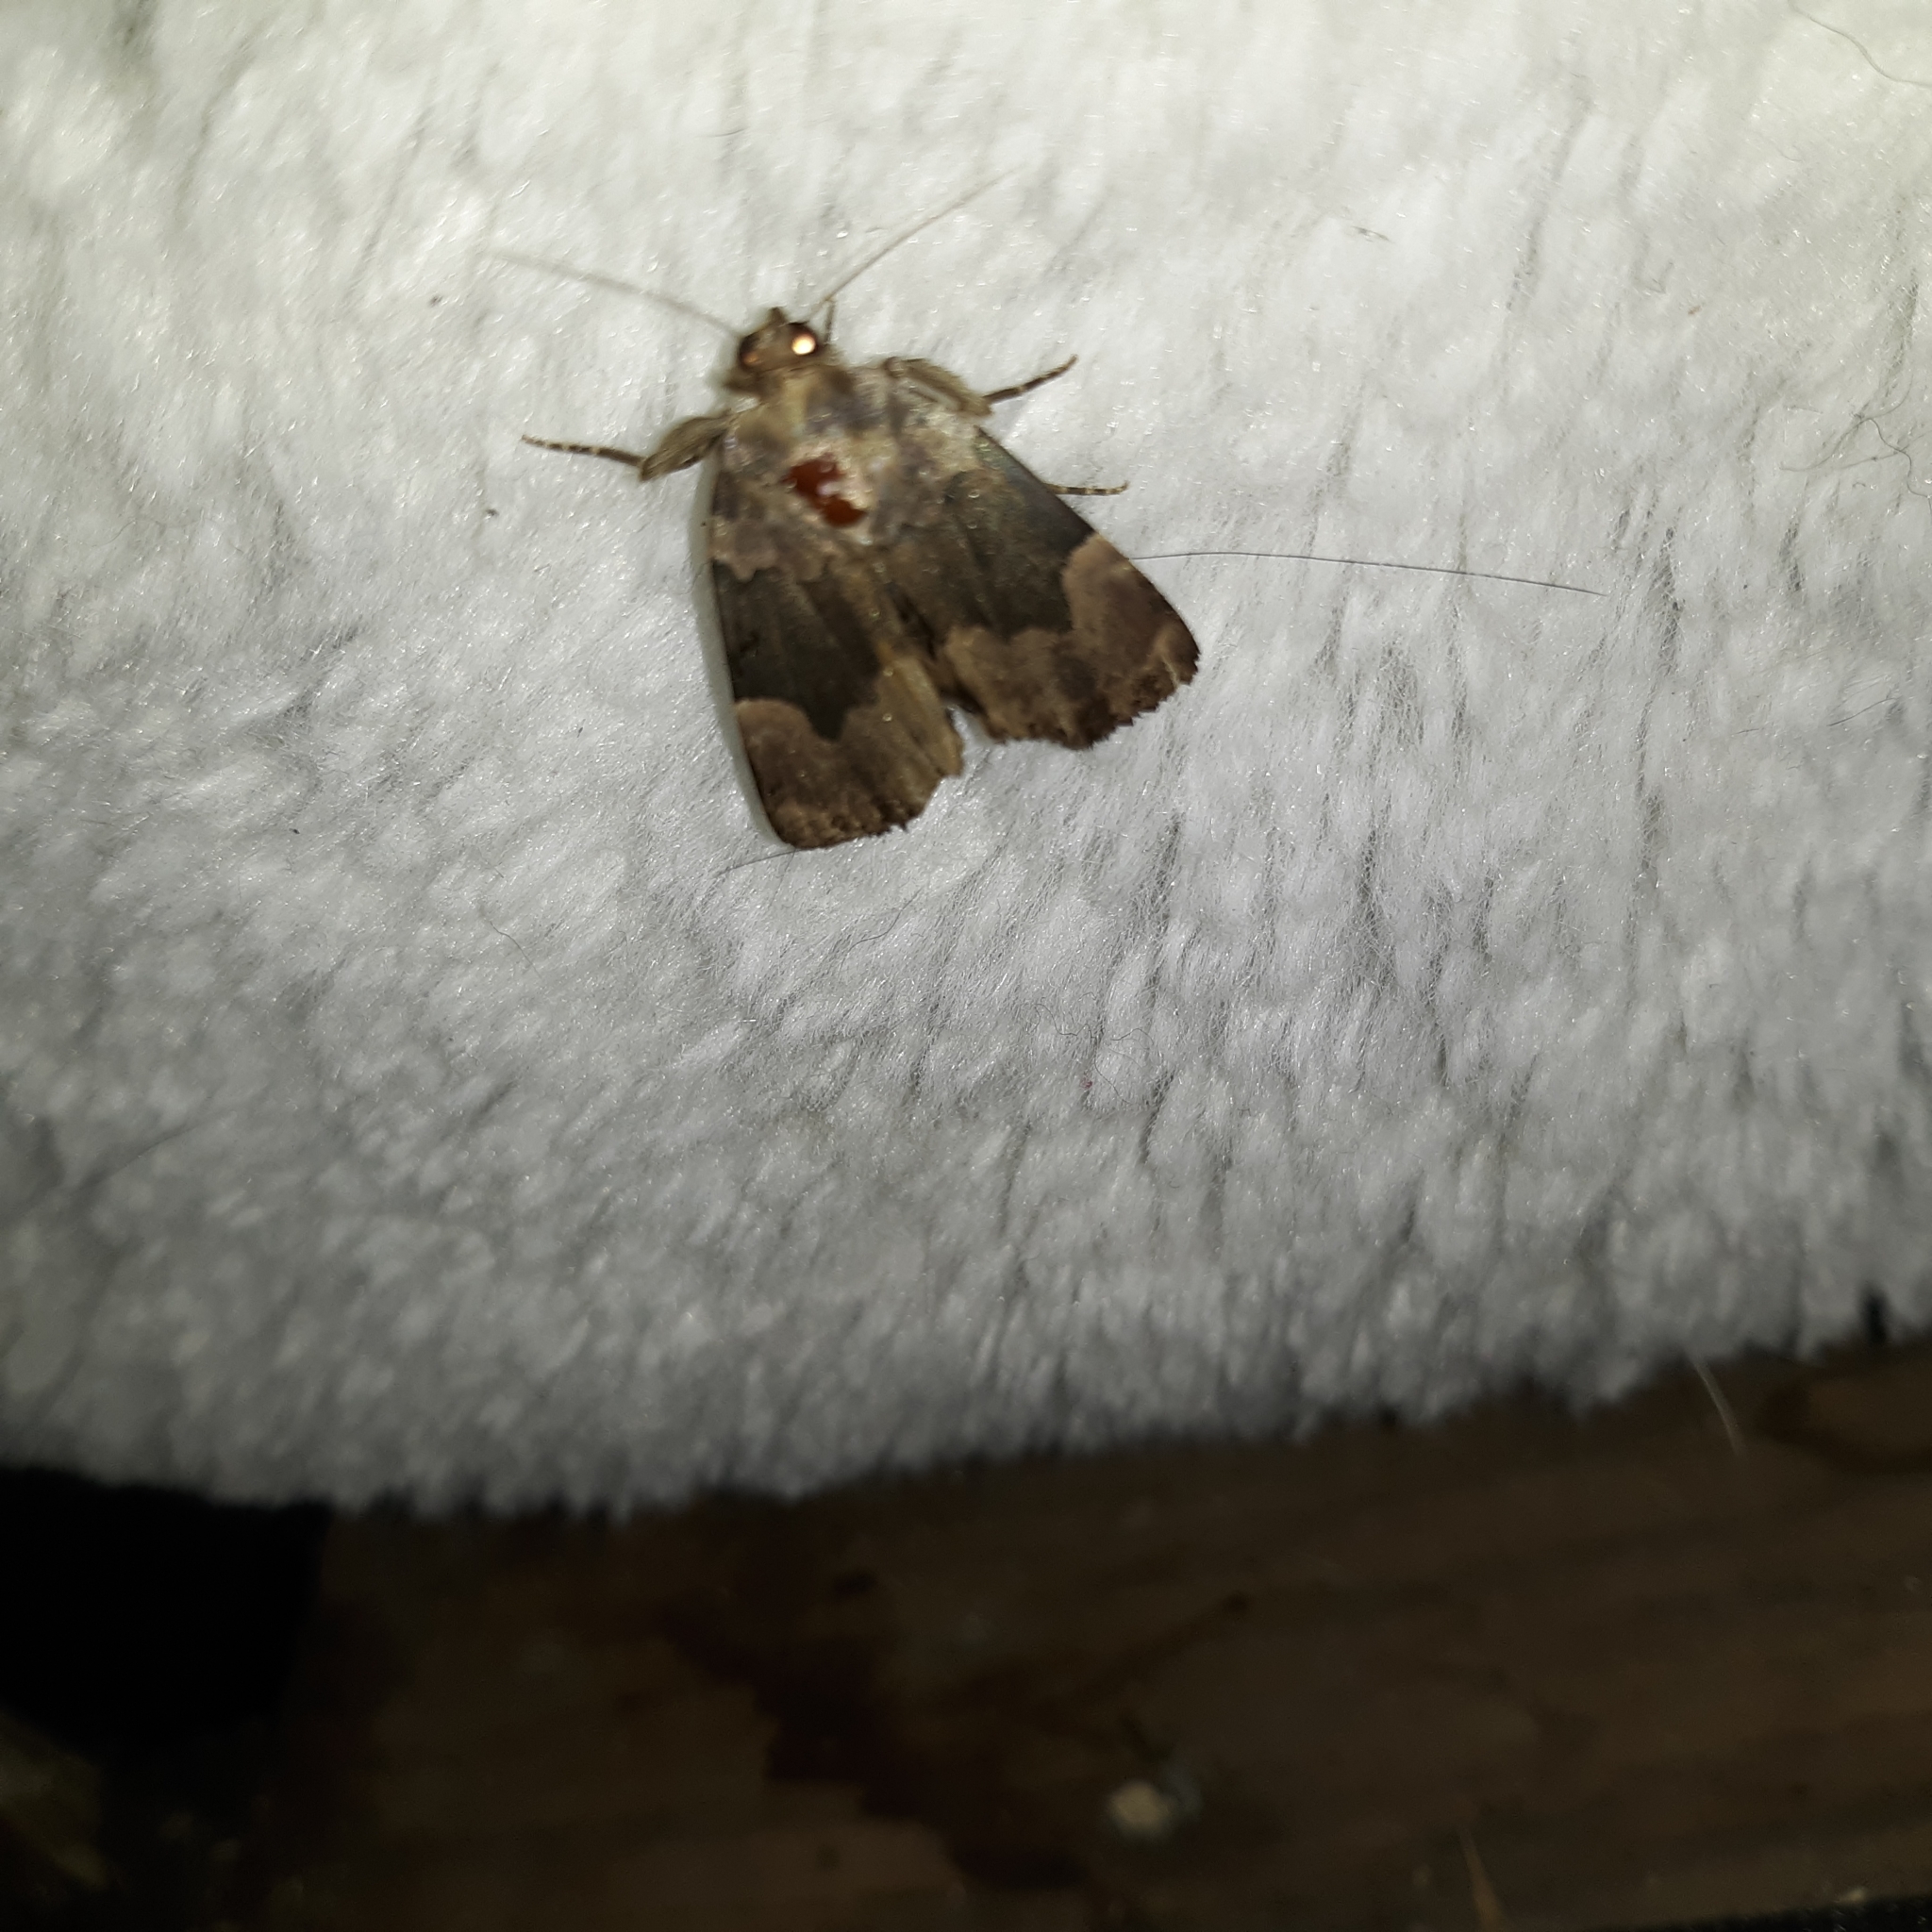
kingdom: Animalia
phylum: Arthropoda
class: Insecta
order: Lepidoptera
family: Erebidae
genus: Dinumma
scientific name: Dinumma deponens
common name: Purplish moth
